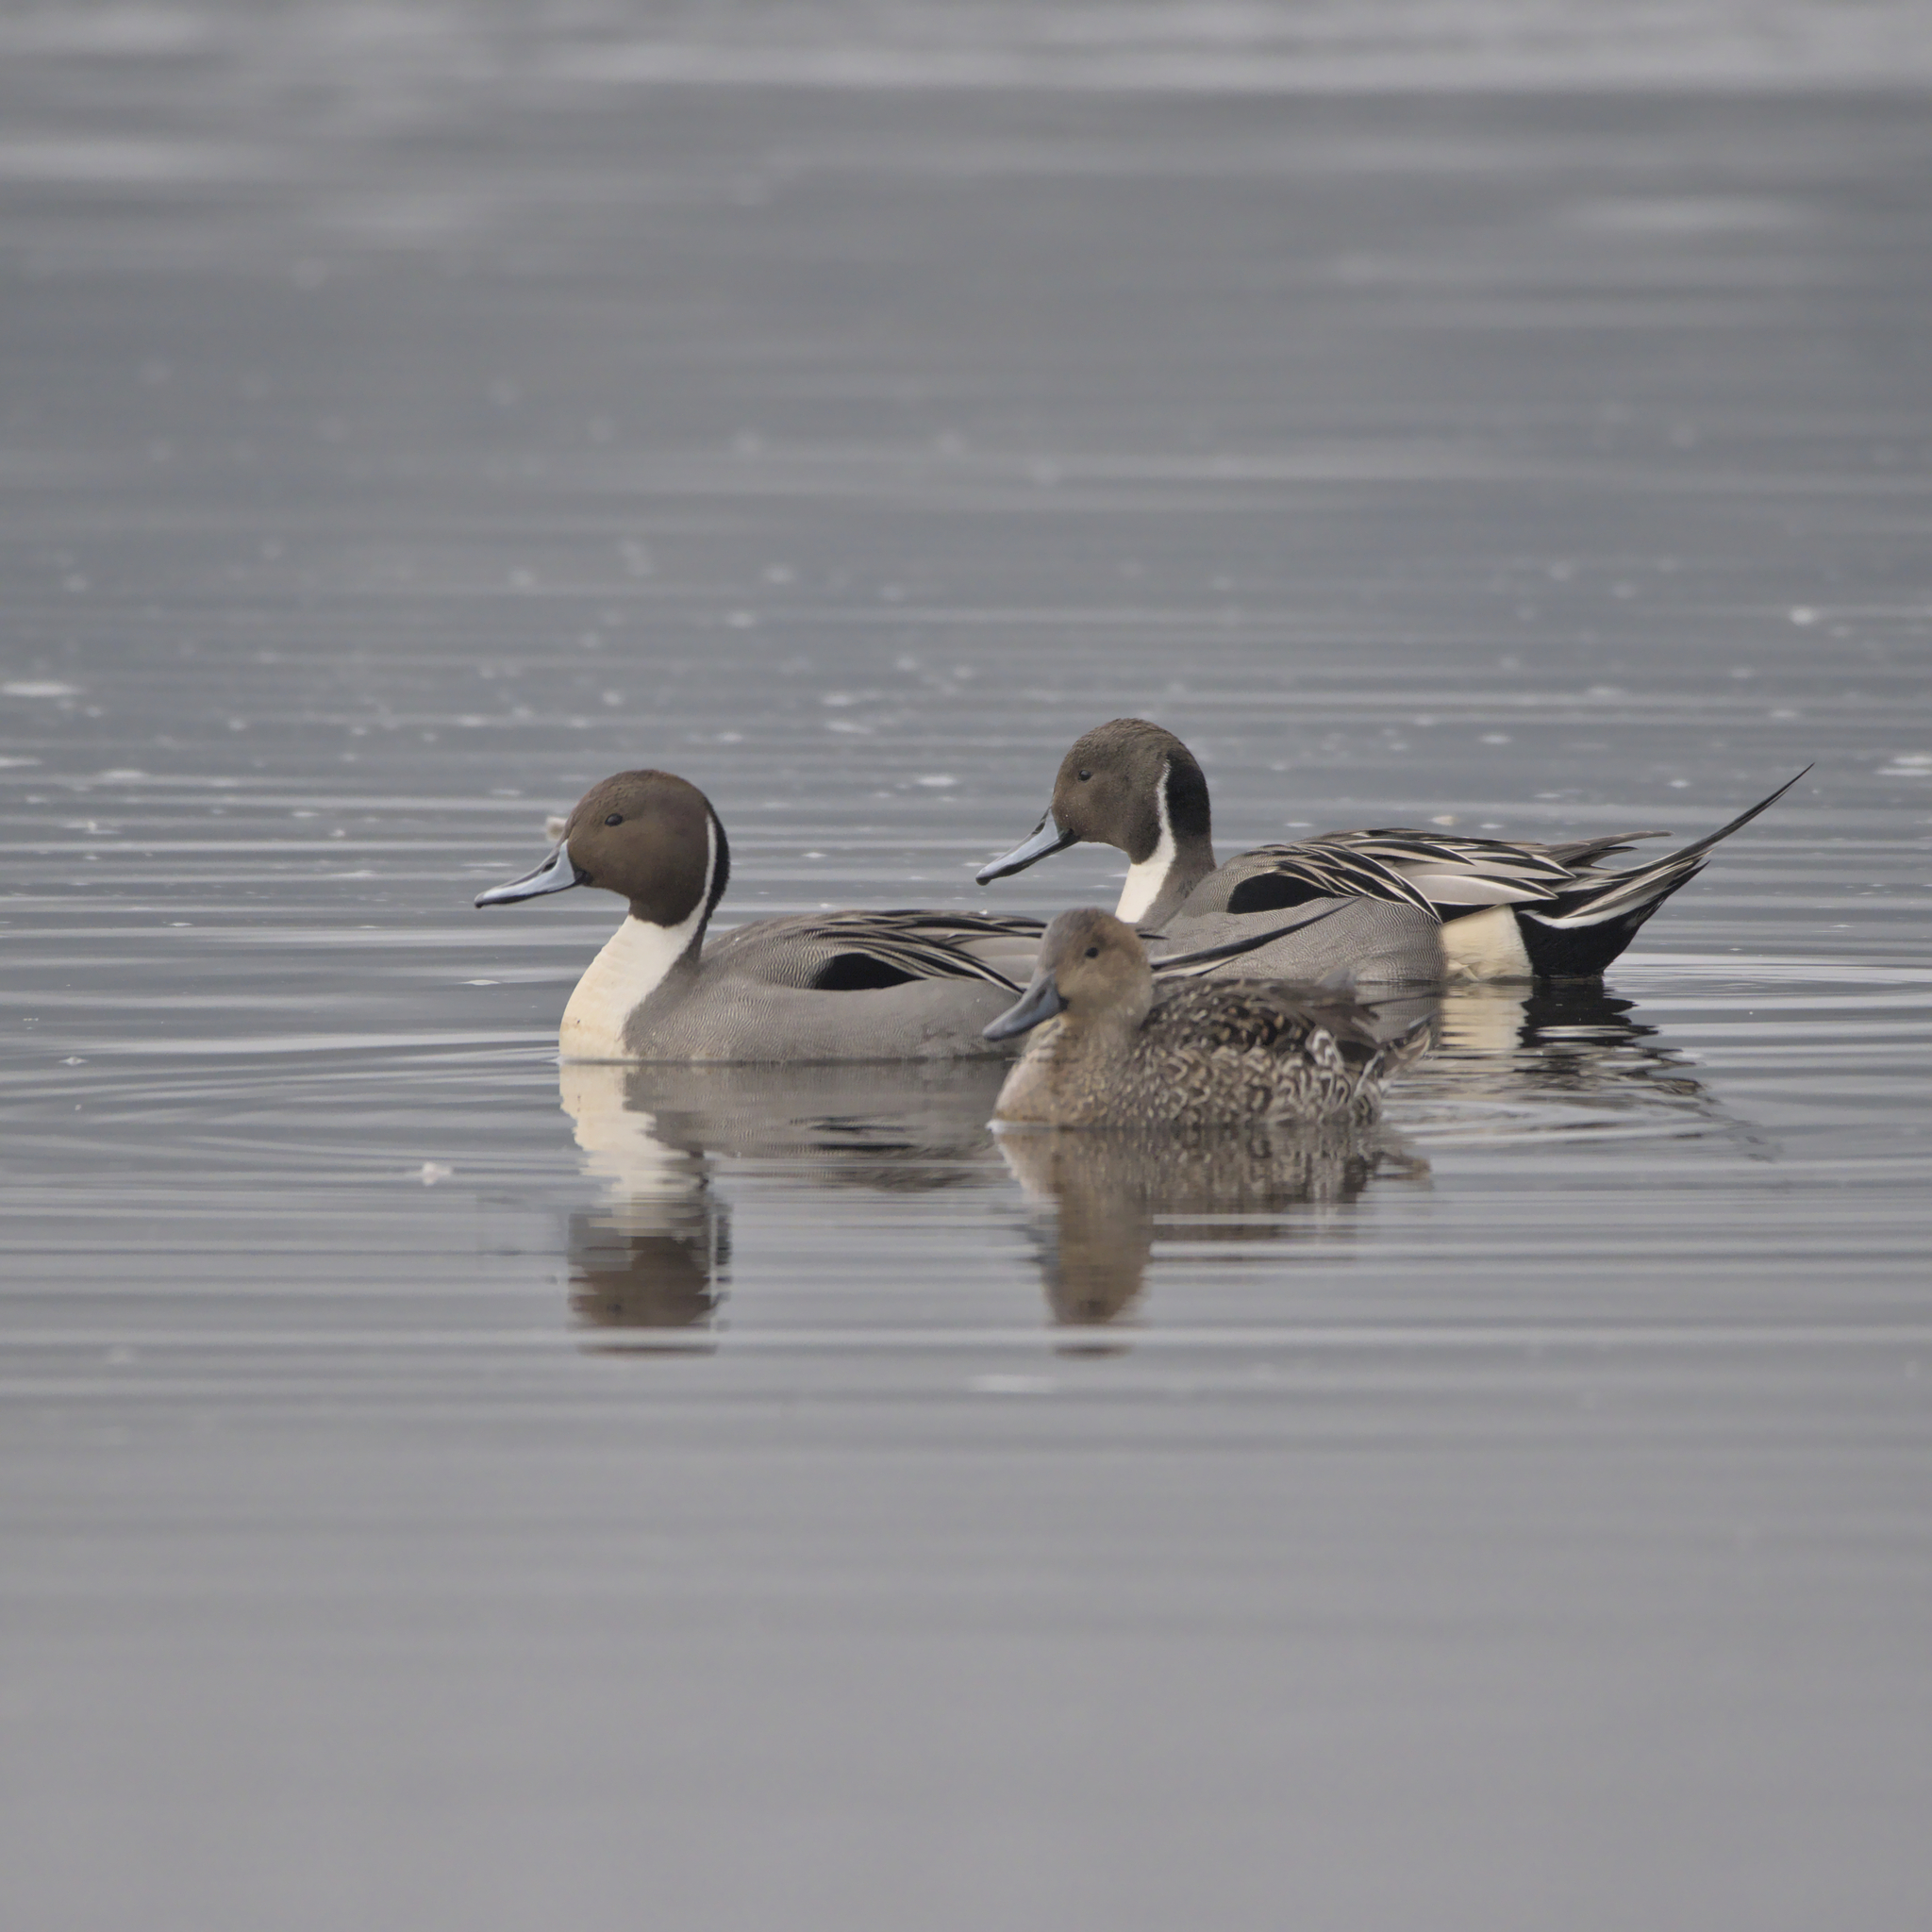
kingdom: Animalia
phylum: Chordata
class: Aves
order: Anseriformes
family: Anatidae
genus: Anas
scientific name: Anas acuta
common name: Northern pintail
